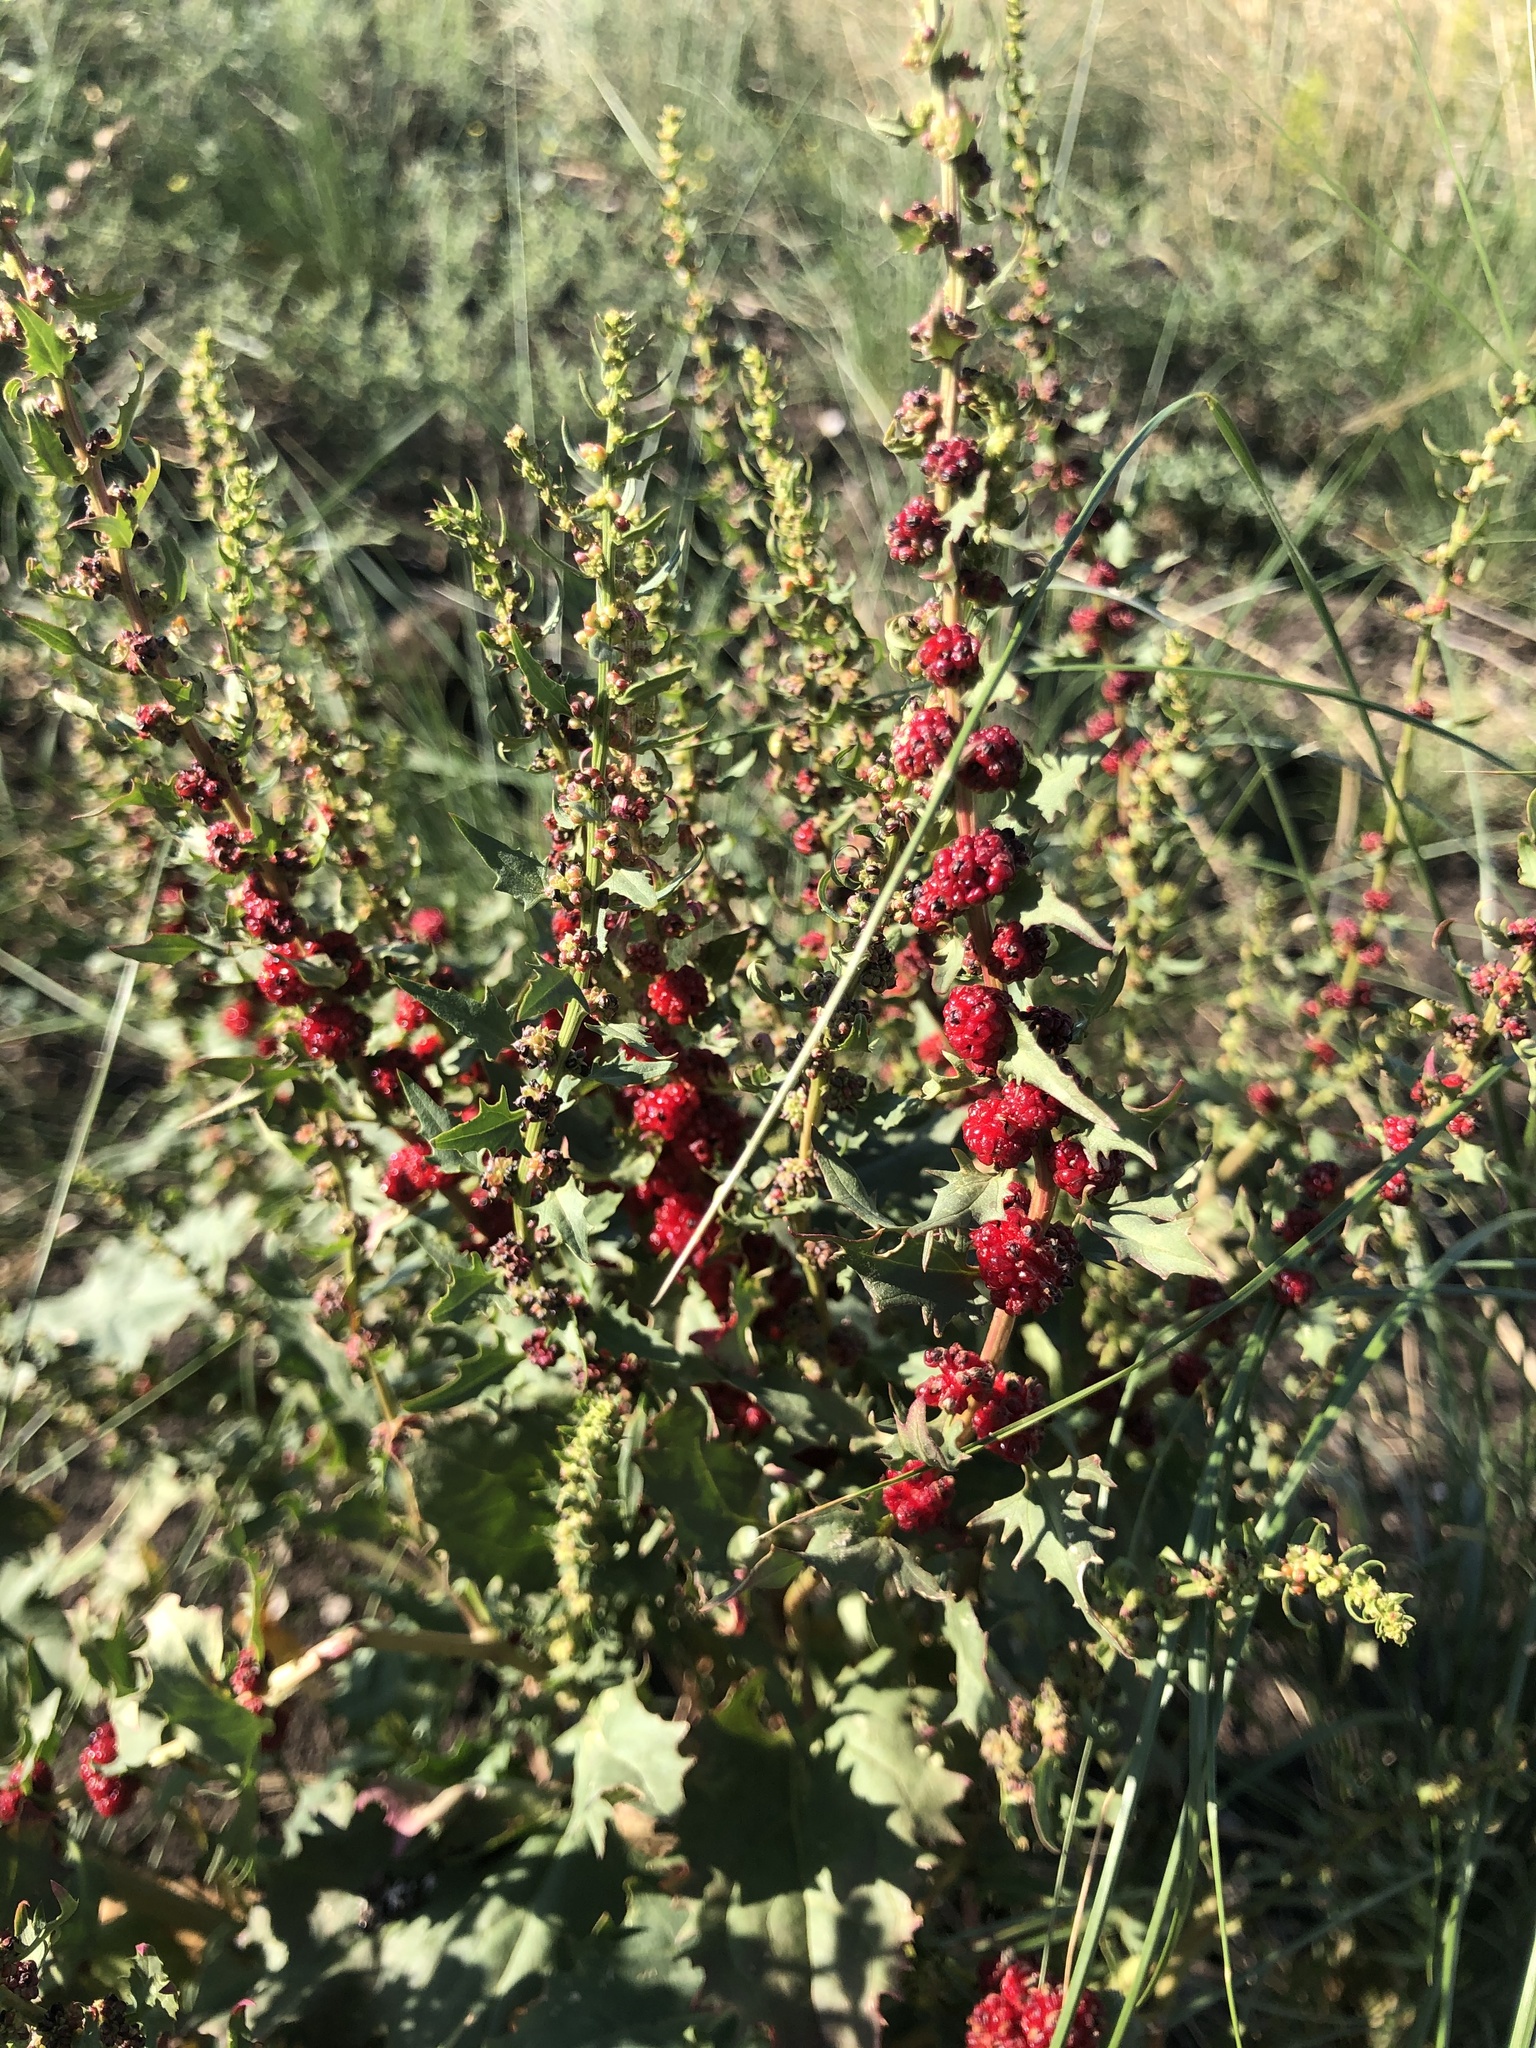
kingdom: Plantae
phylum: Tracheophyta
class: Magnoliopsida
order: Caryophyllales
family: Amaranthaceae
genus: Blitum
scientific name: Blitum virgatum
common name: Strawberry goosefoot
